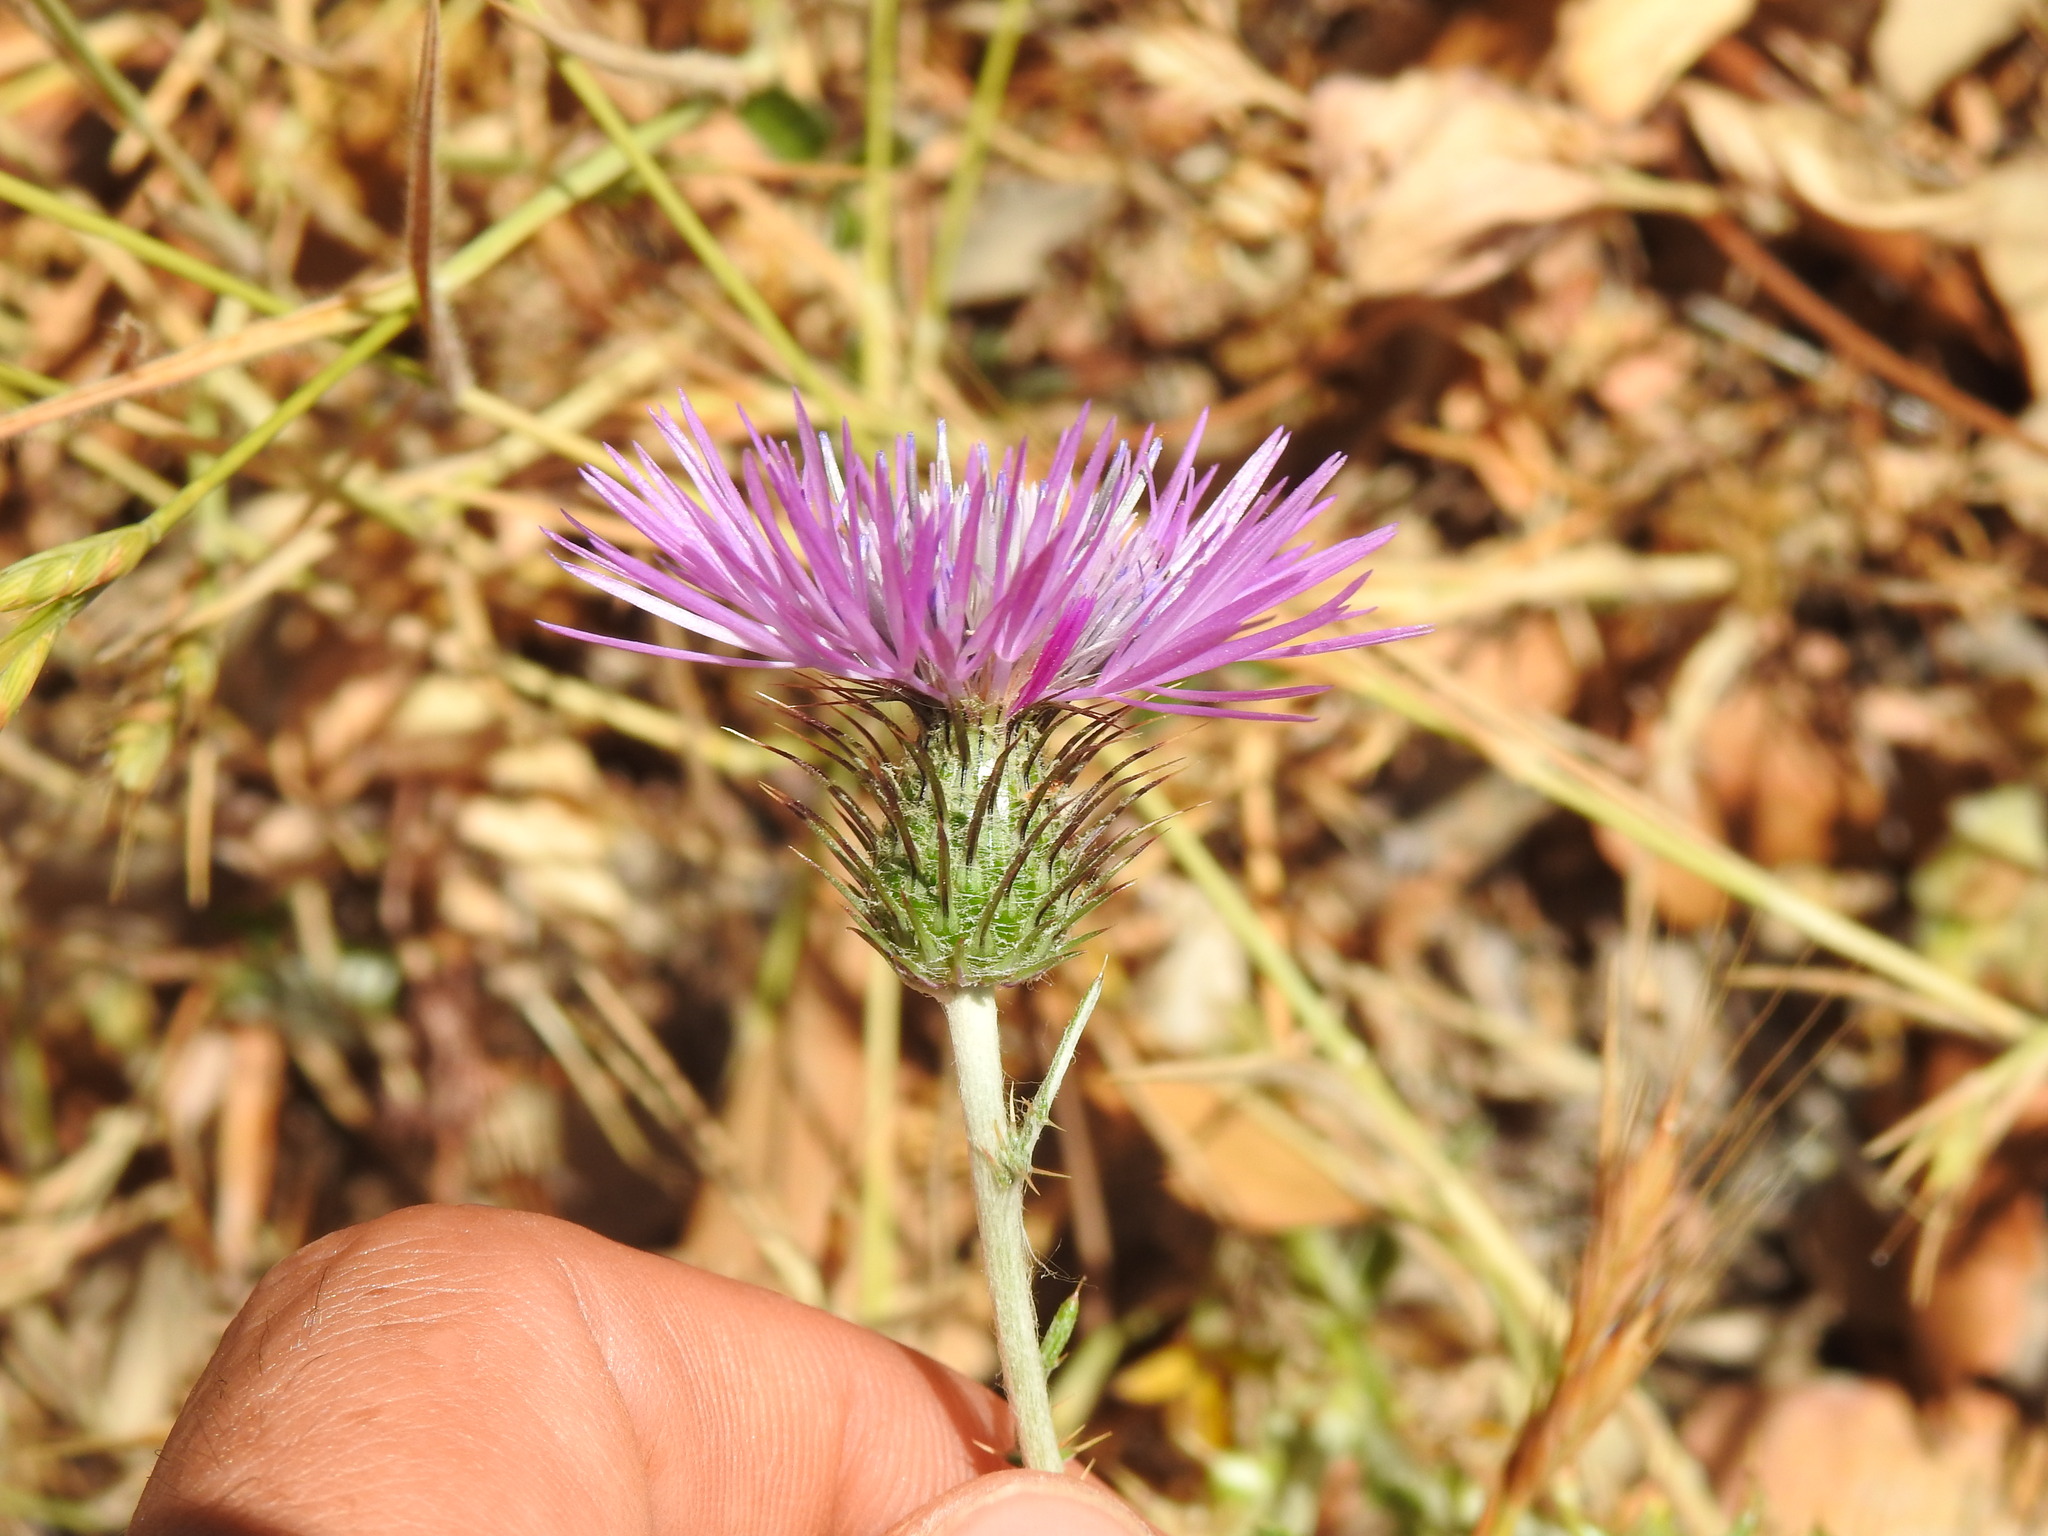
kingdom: Plantae
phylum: Tracheophyta
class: Magnoliopsida
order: Asterales
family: Asteraceae
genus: Galactites
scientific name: Galactites tomentosa
